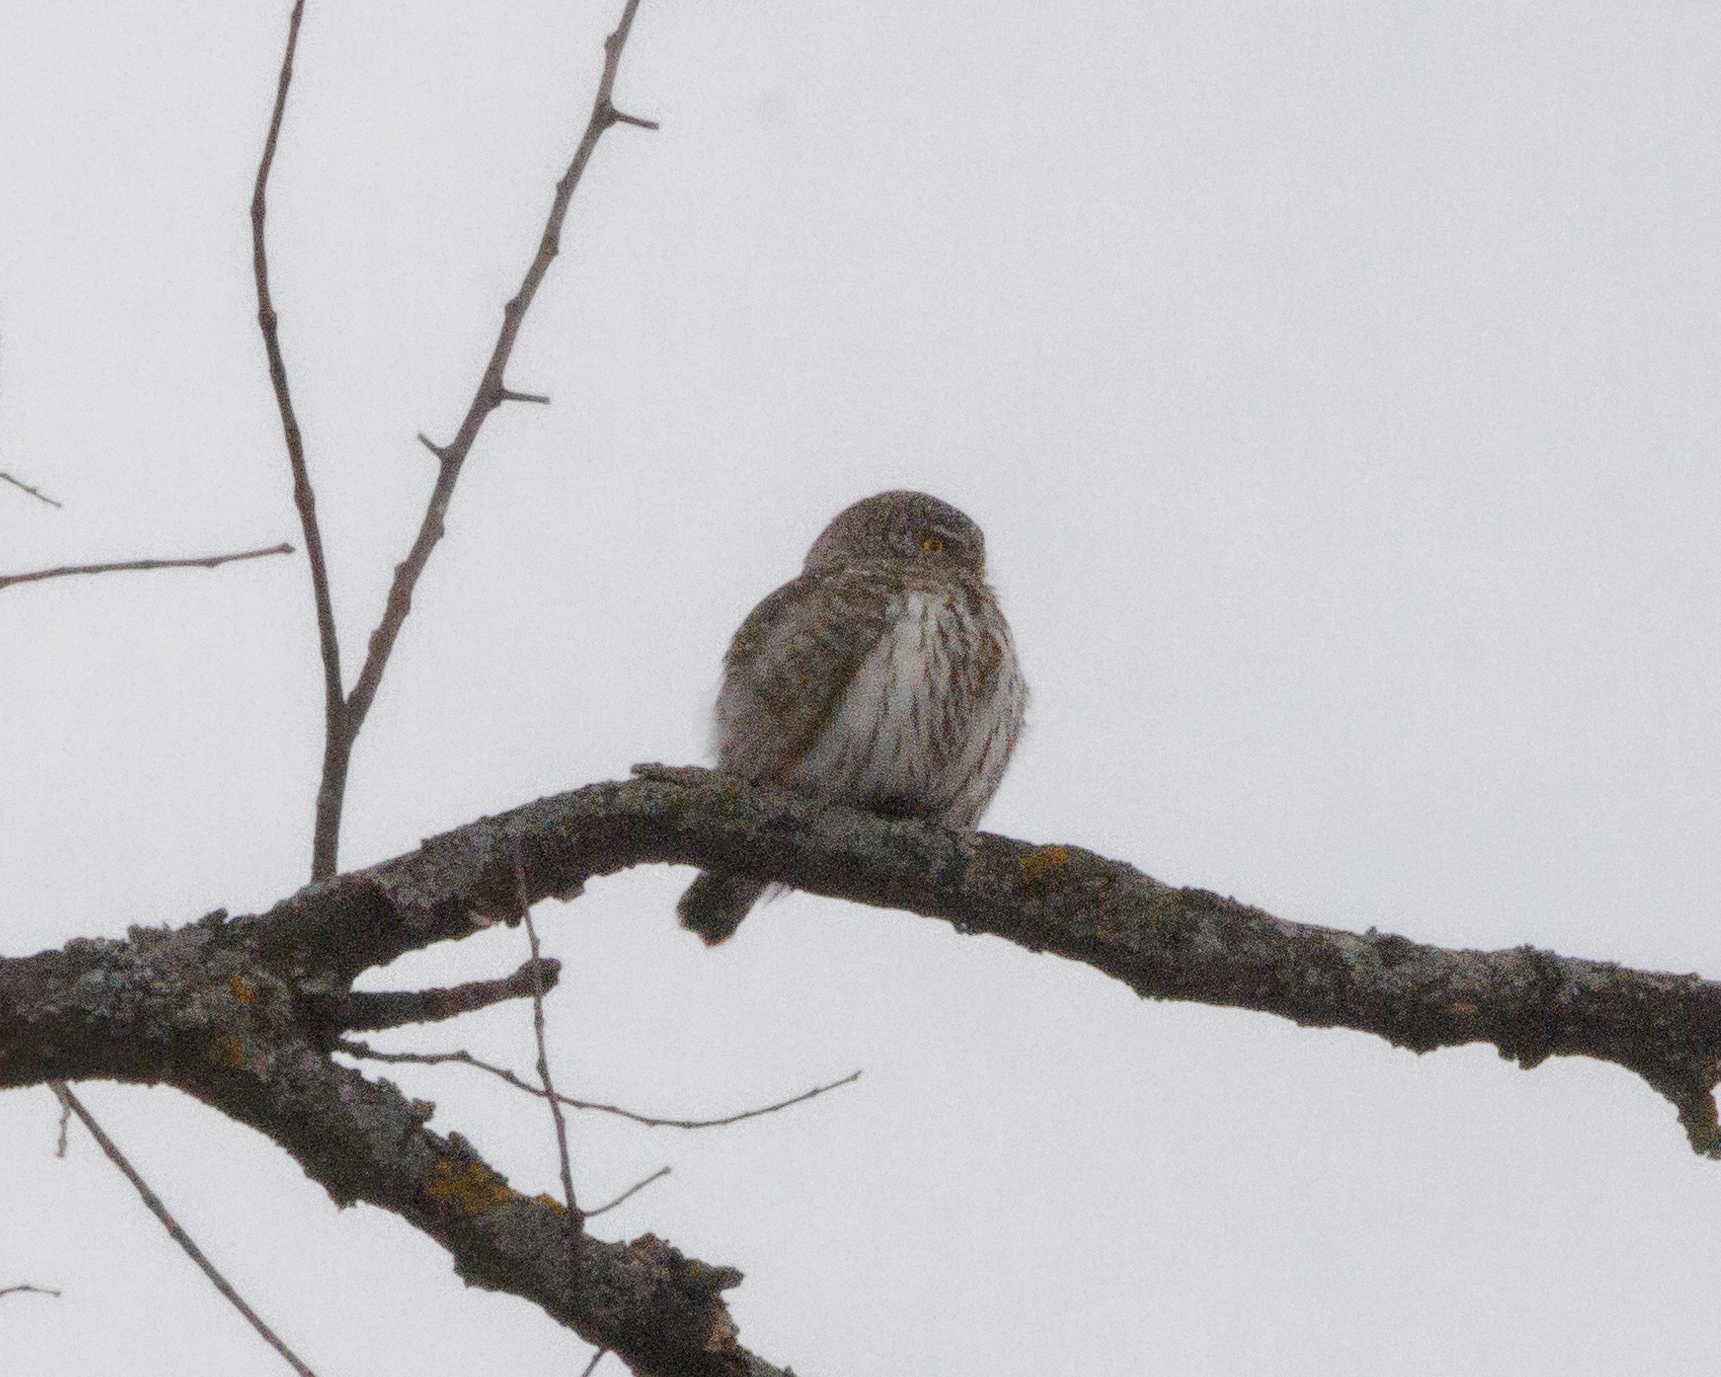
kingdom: Animalia
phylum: Chordata
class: Aves
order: Strigiformes
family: Strigidae
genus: Glaucidium
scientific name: Glaucidium passerinum
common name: Eurasian pygmy owl
